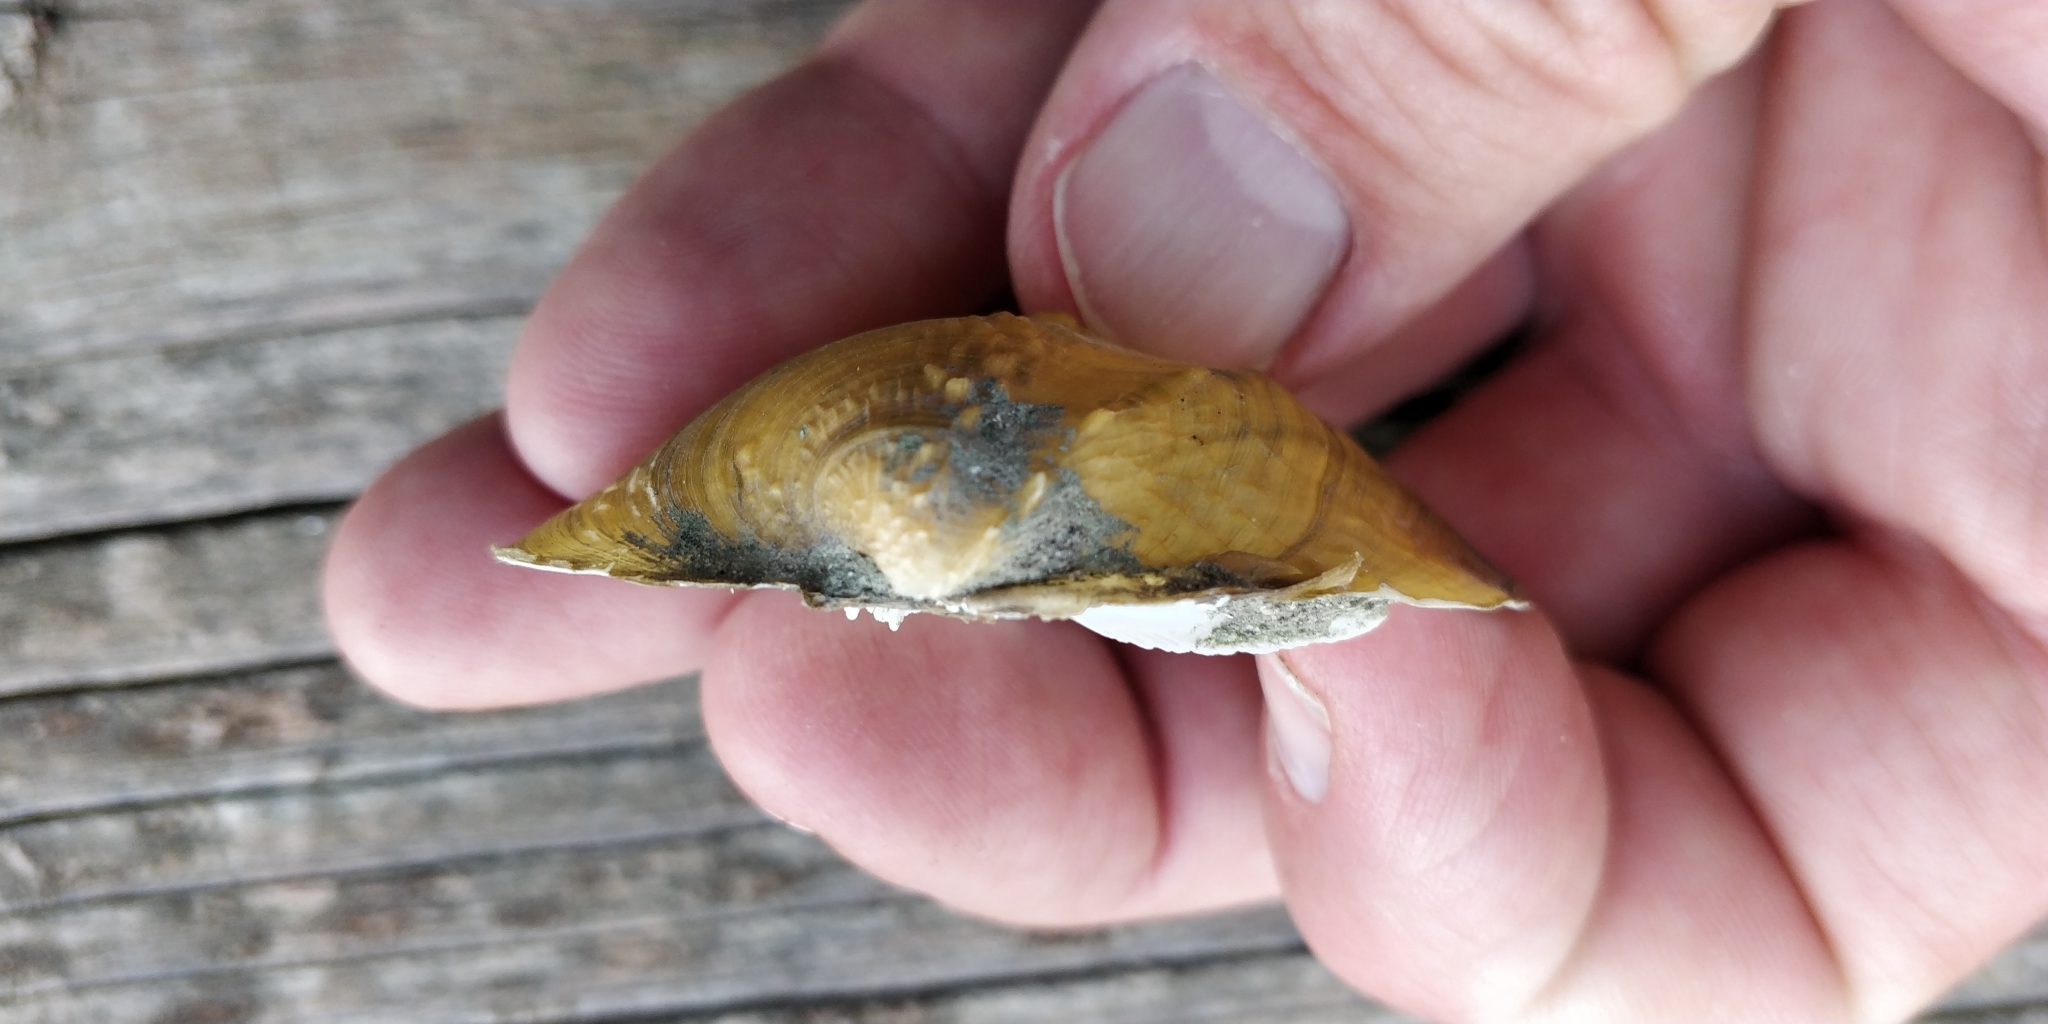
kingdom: Animalia
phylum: Mollusca
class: Bivalvia
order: Unionida
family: Unionidae
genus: Quadrula
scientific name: Quadrula quadrula
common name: Mapleleaf
